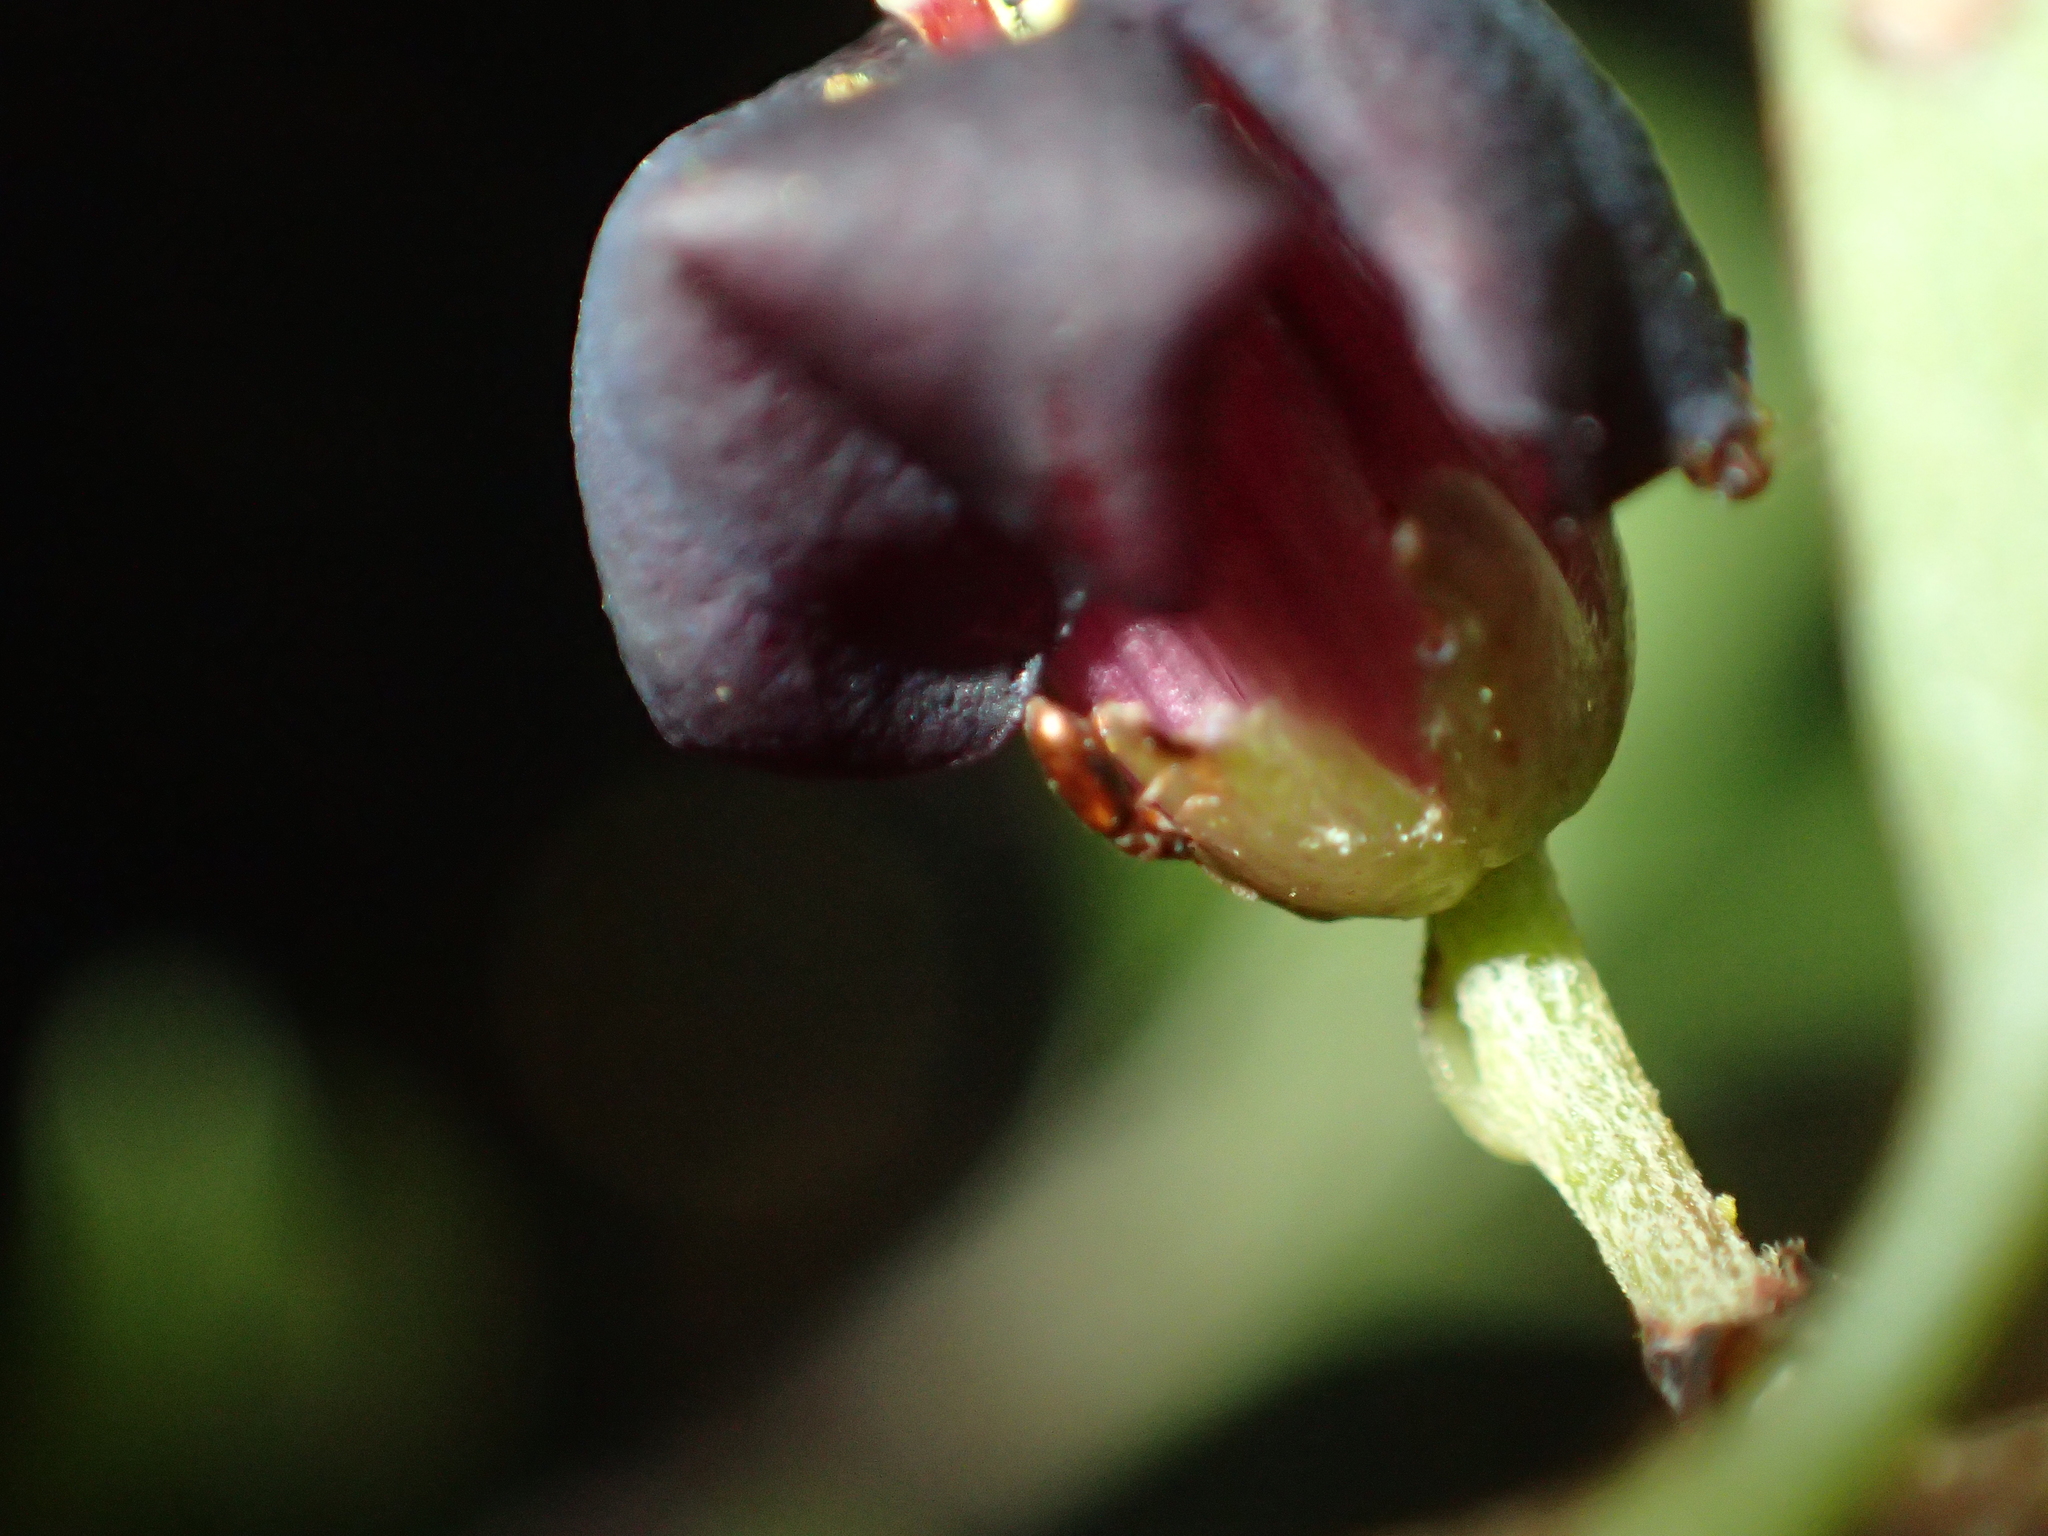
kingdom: Plantae
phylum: Tracheophyta
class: Magnoliopsida
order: Apiales
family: Pittosporaceae
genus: Pittosporum
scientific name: Pittosporum tenuifolium
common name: Kohuhu
